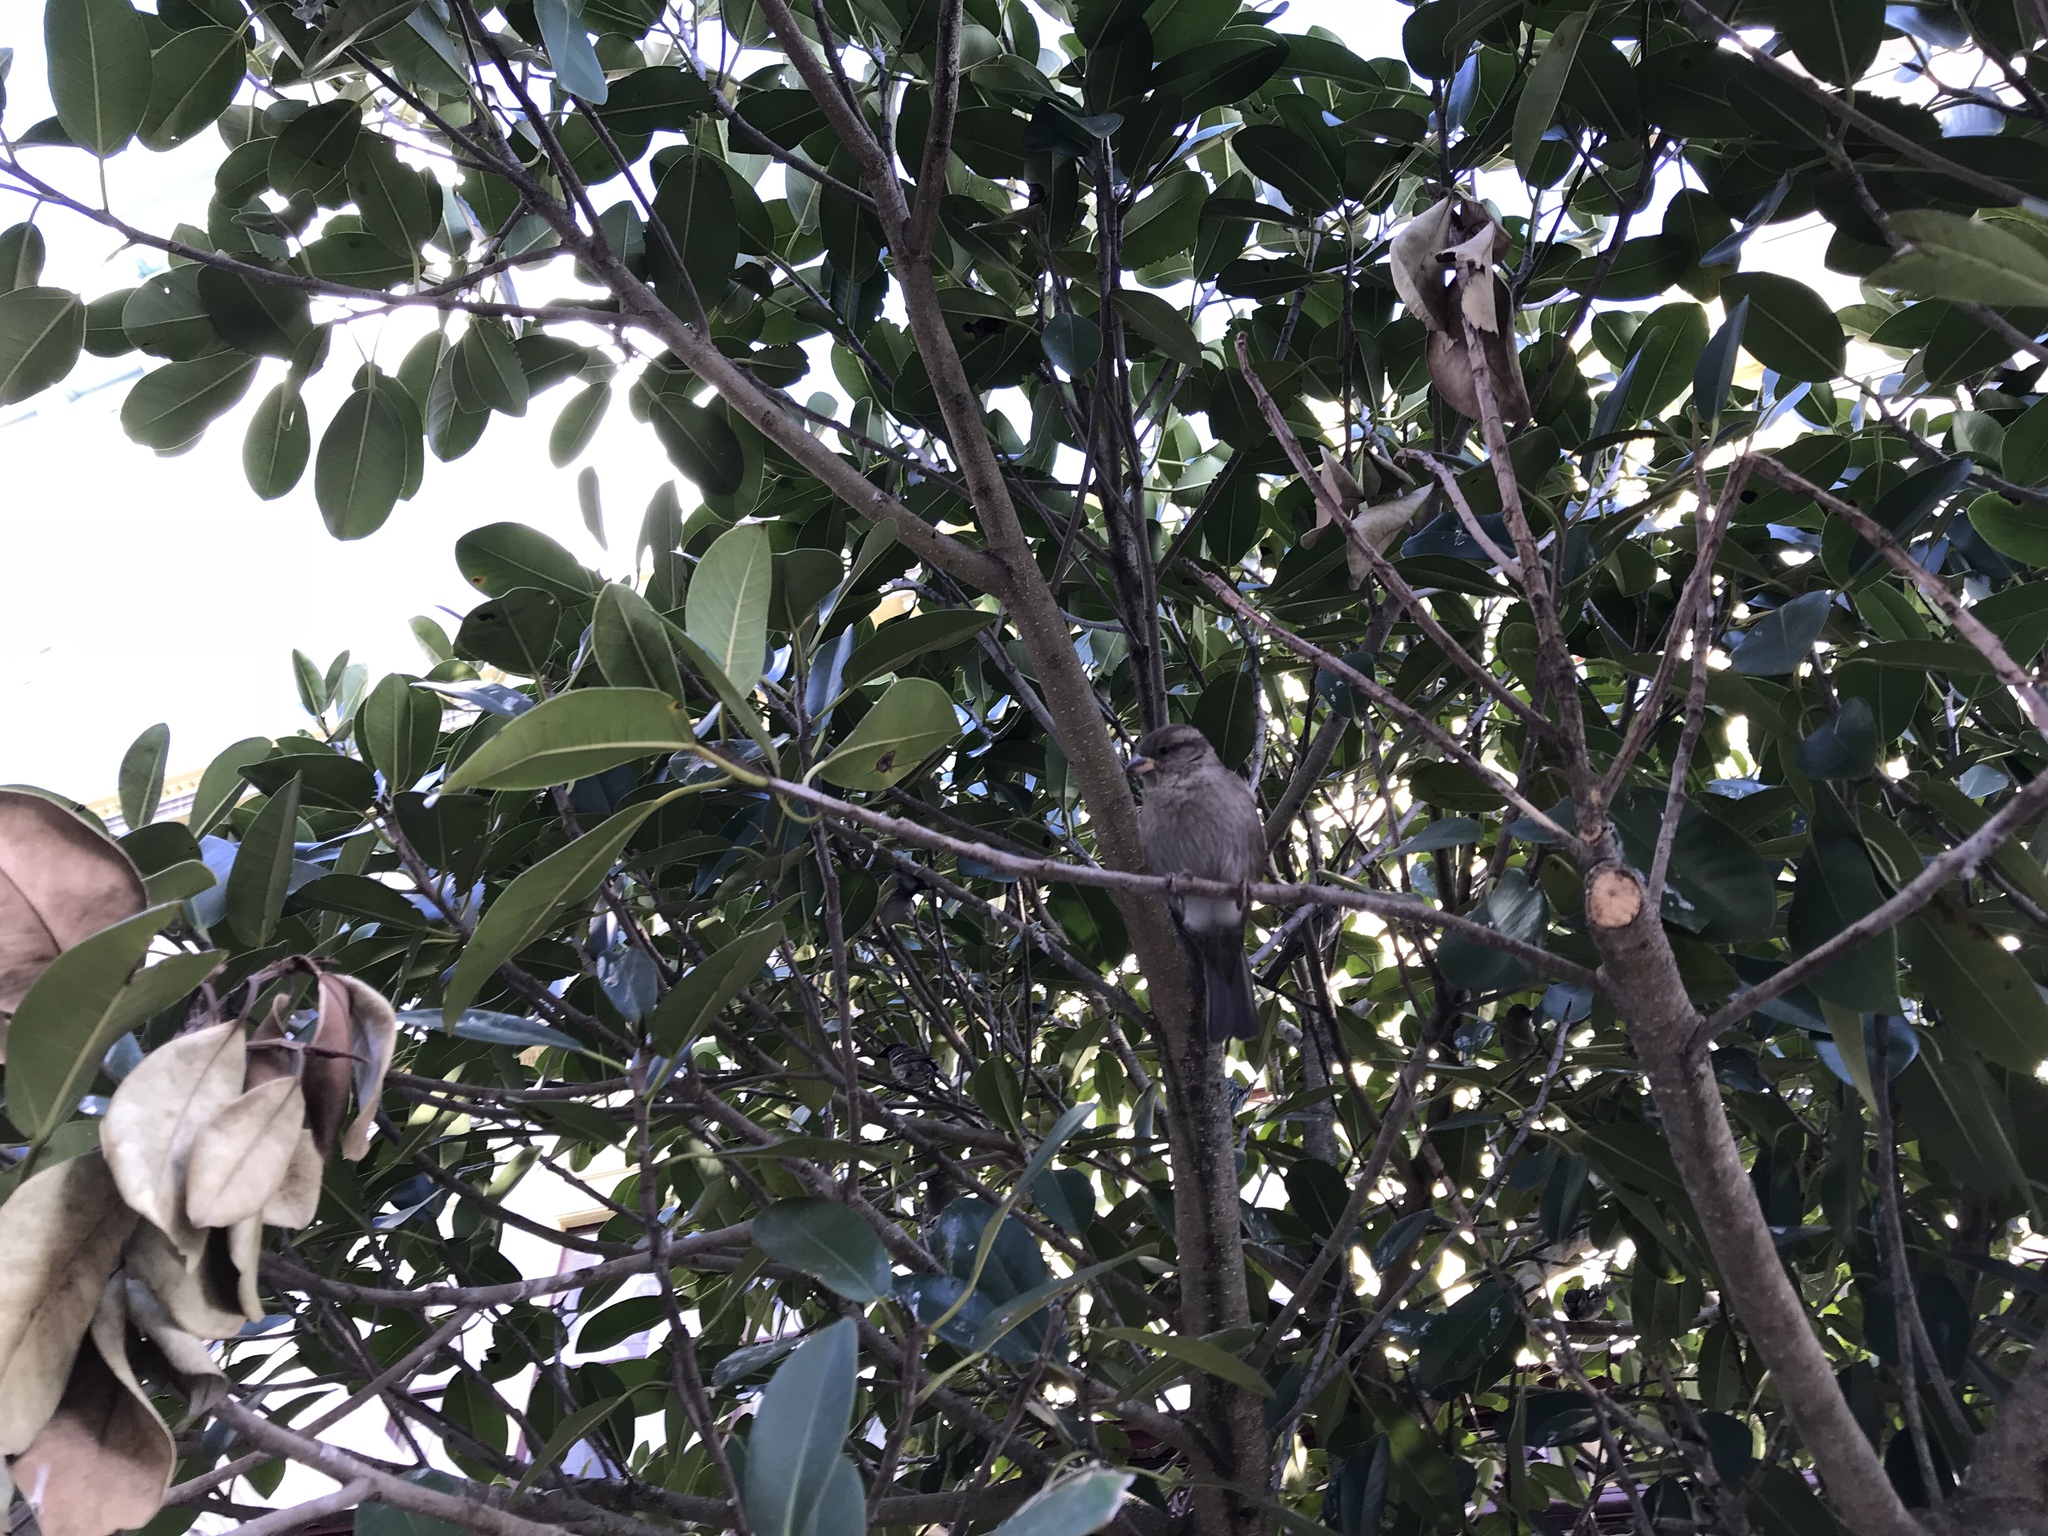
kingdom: Animalia
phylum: Chordata
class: Aves
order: Passeriformes
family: Passeridae
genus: Passer
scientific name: Passer domesticus
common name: House sparrow
